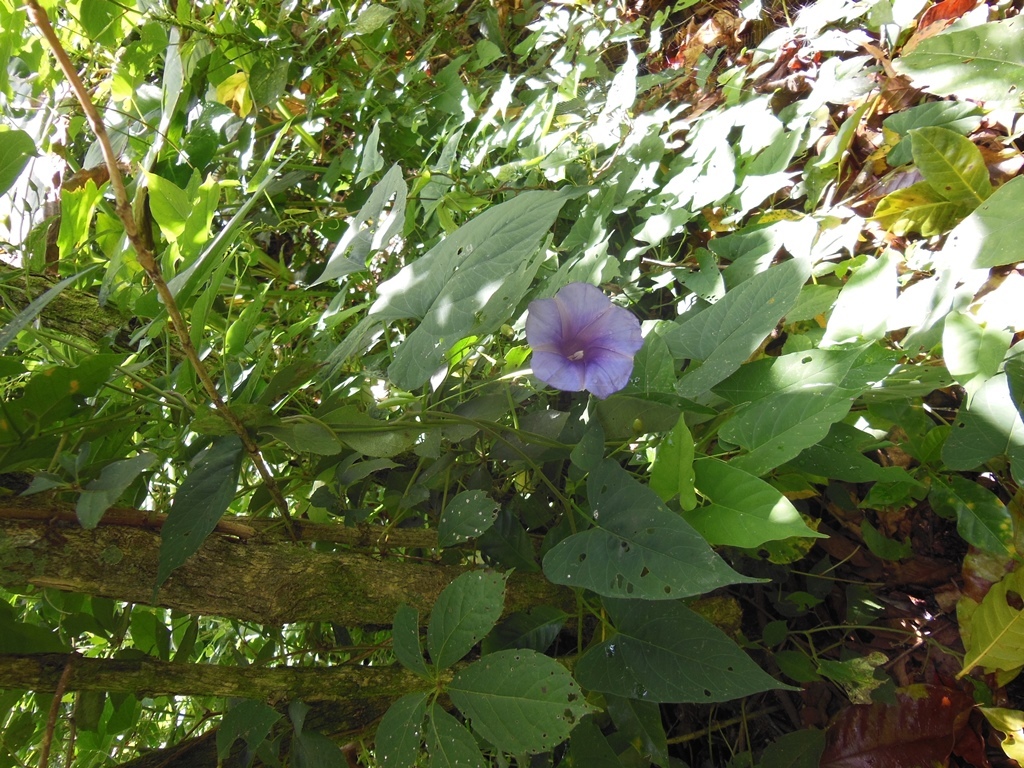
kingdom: Plantae
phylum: Tracheophyta
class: Magnoliopsida
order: Solanales
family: Convolvulaceae
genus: Ipomoea
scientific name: Ipomoea lindenii
